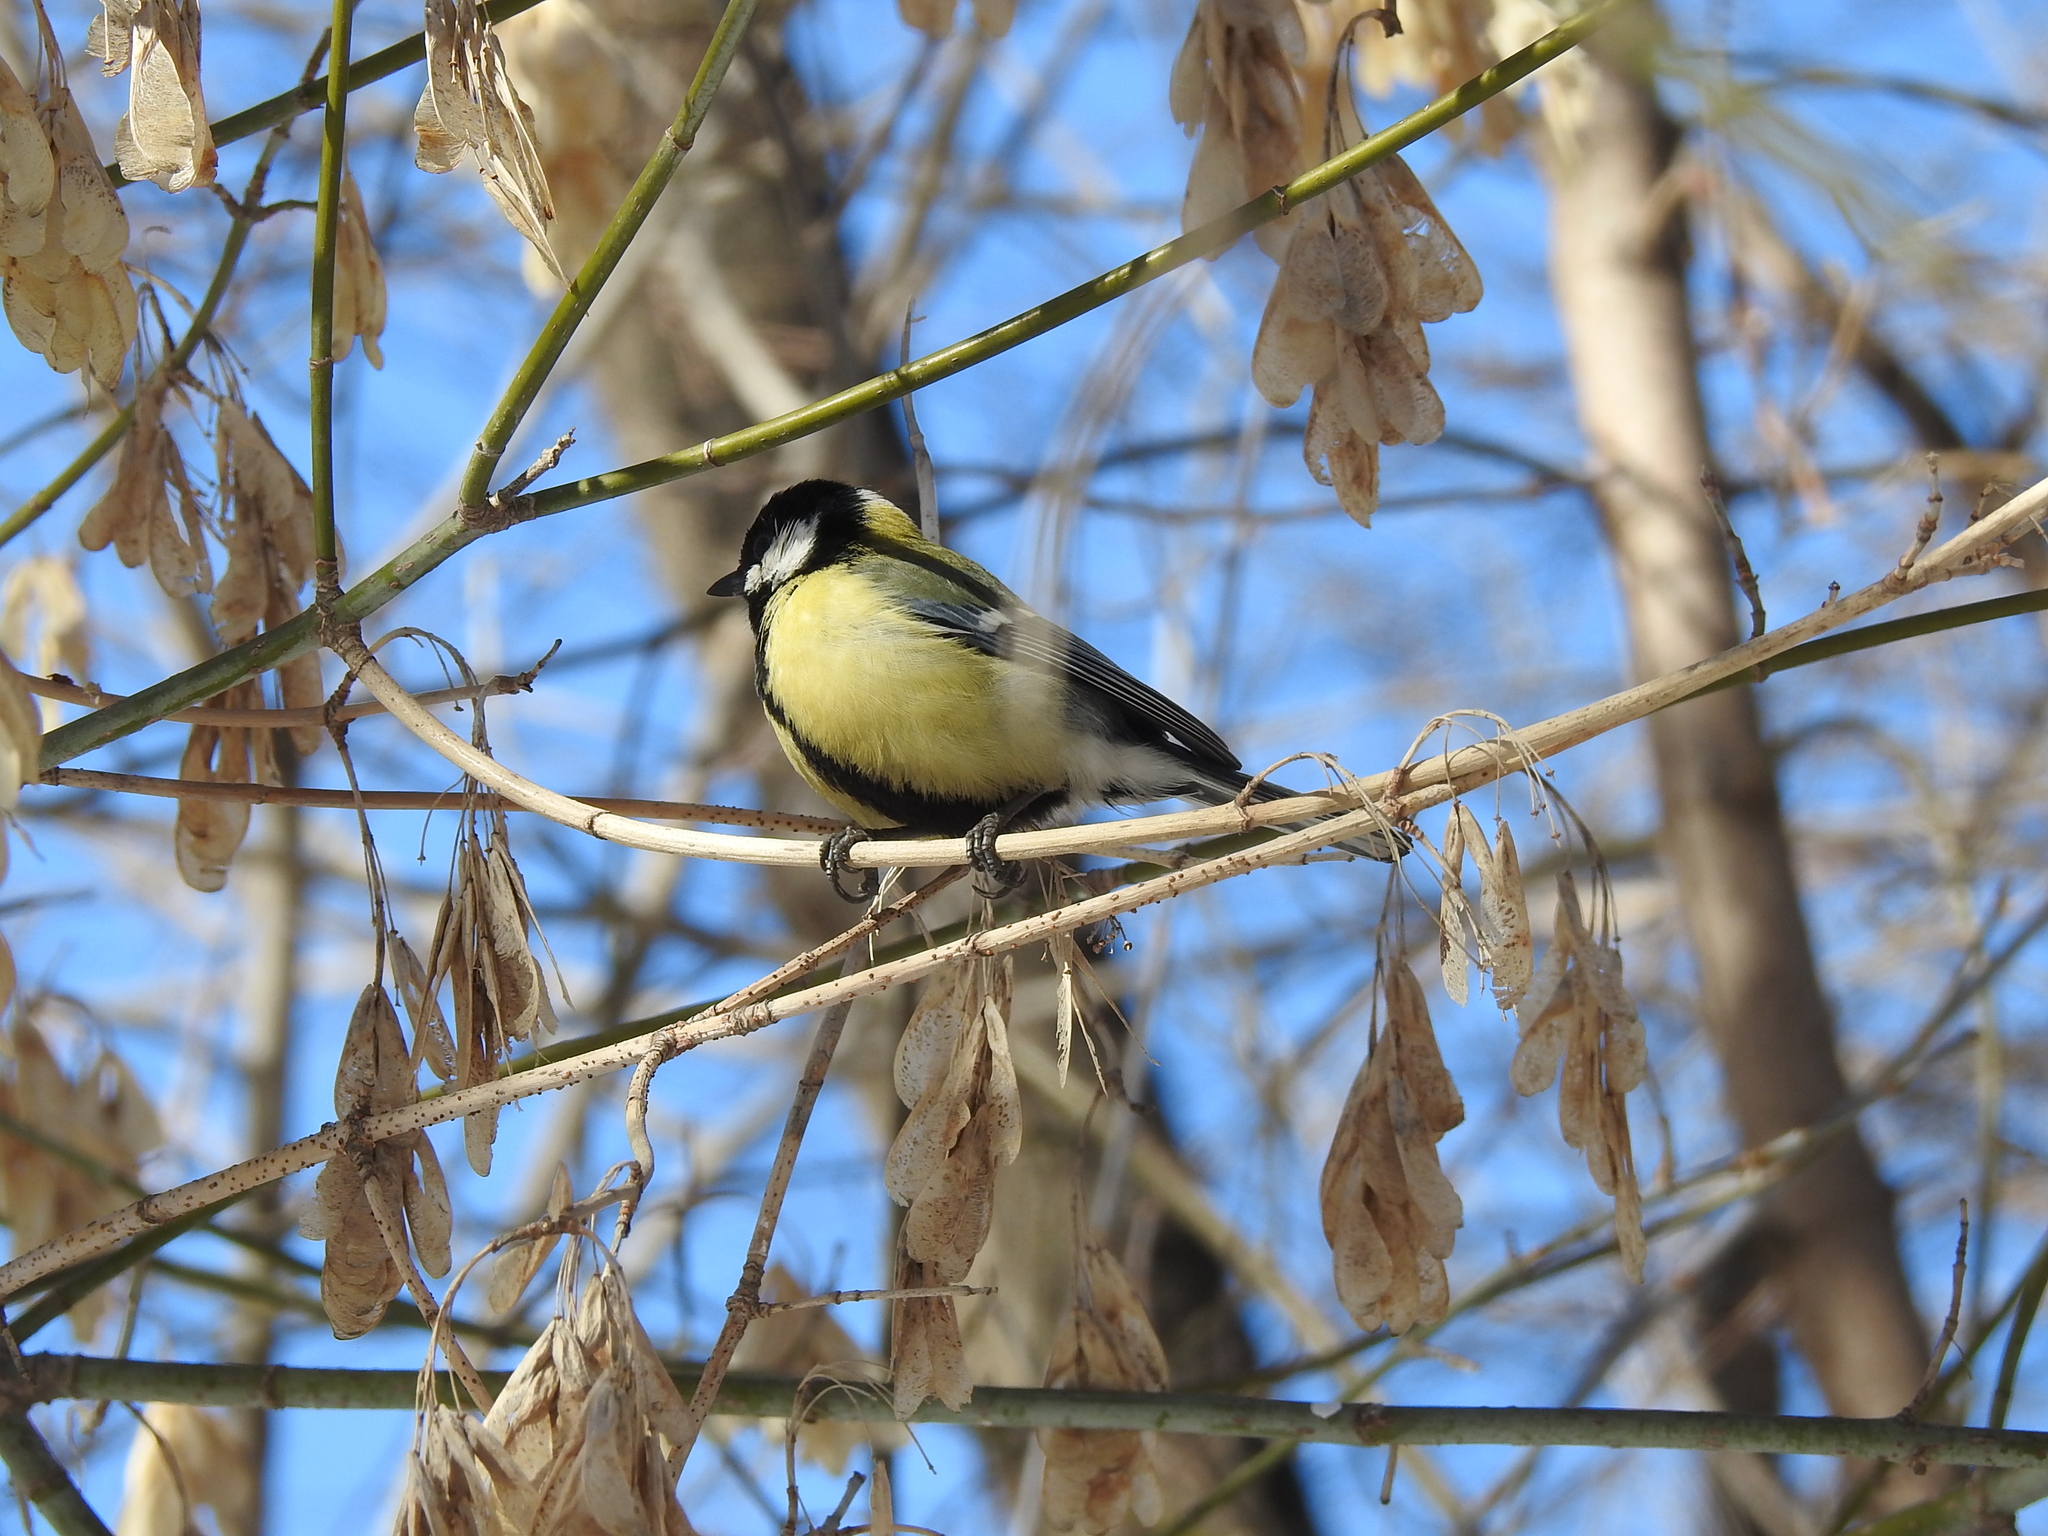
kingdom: Animalia
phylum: Chordata
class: Aves
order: Passeriformes
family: Paridae
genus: Parus
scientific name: Parus major
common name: Great tit
